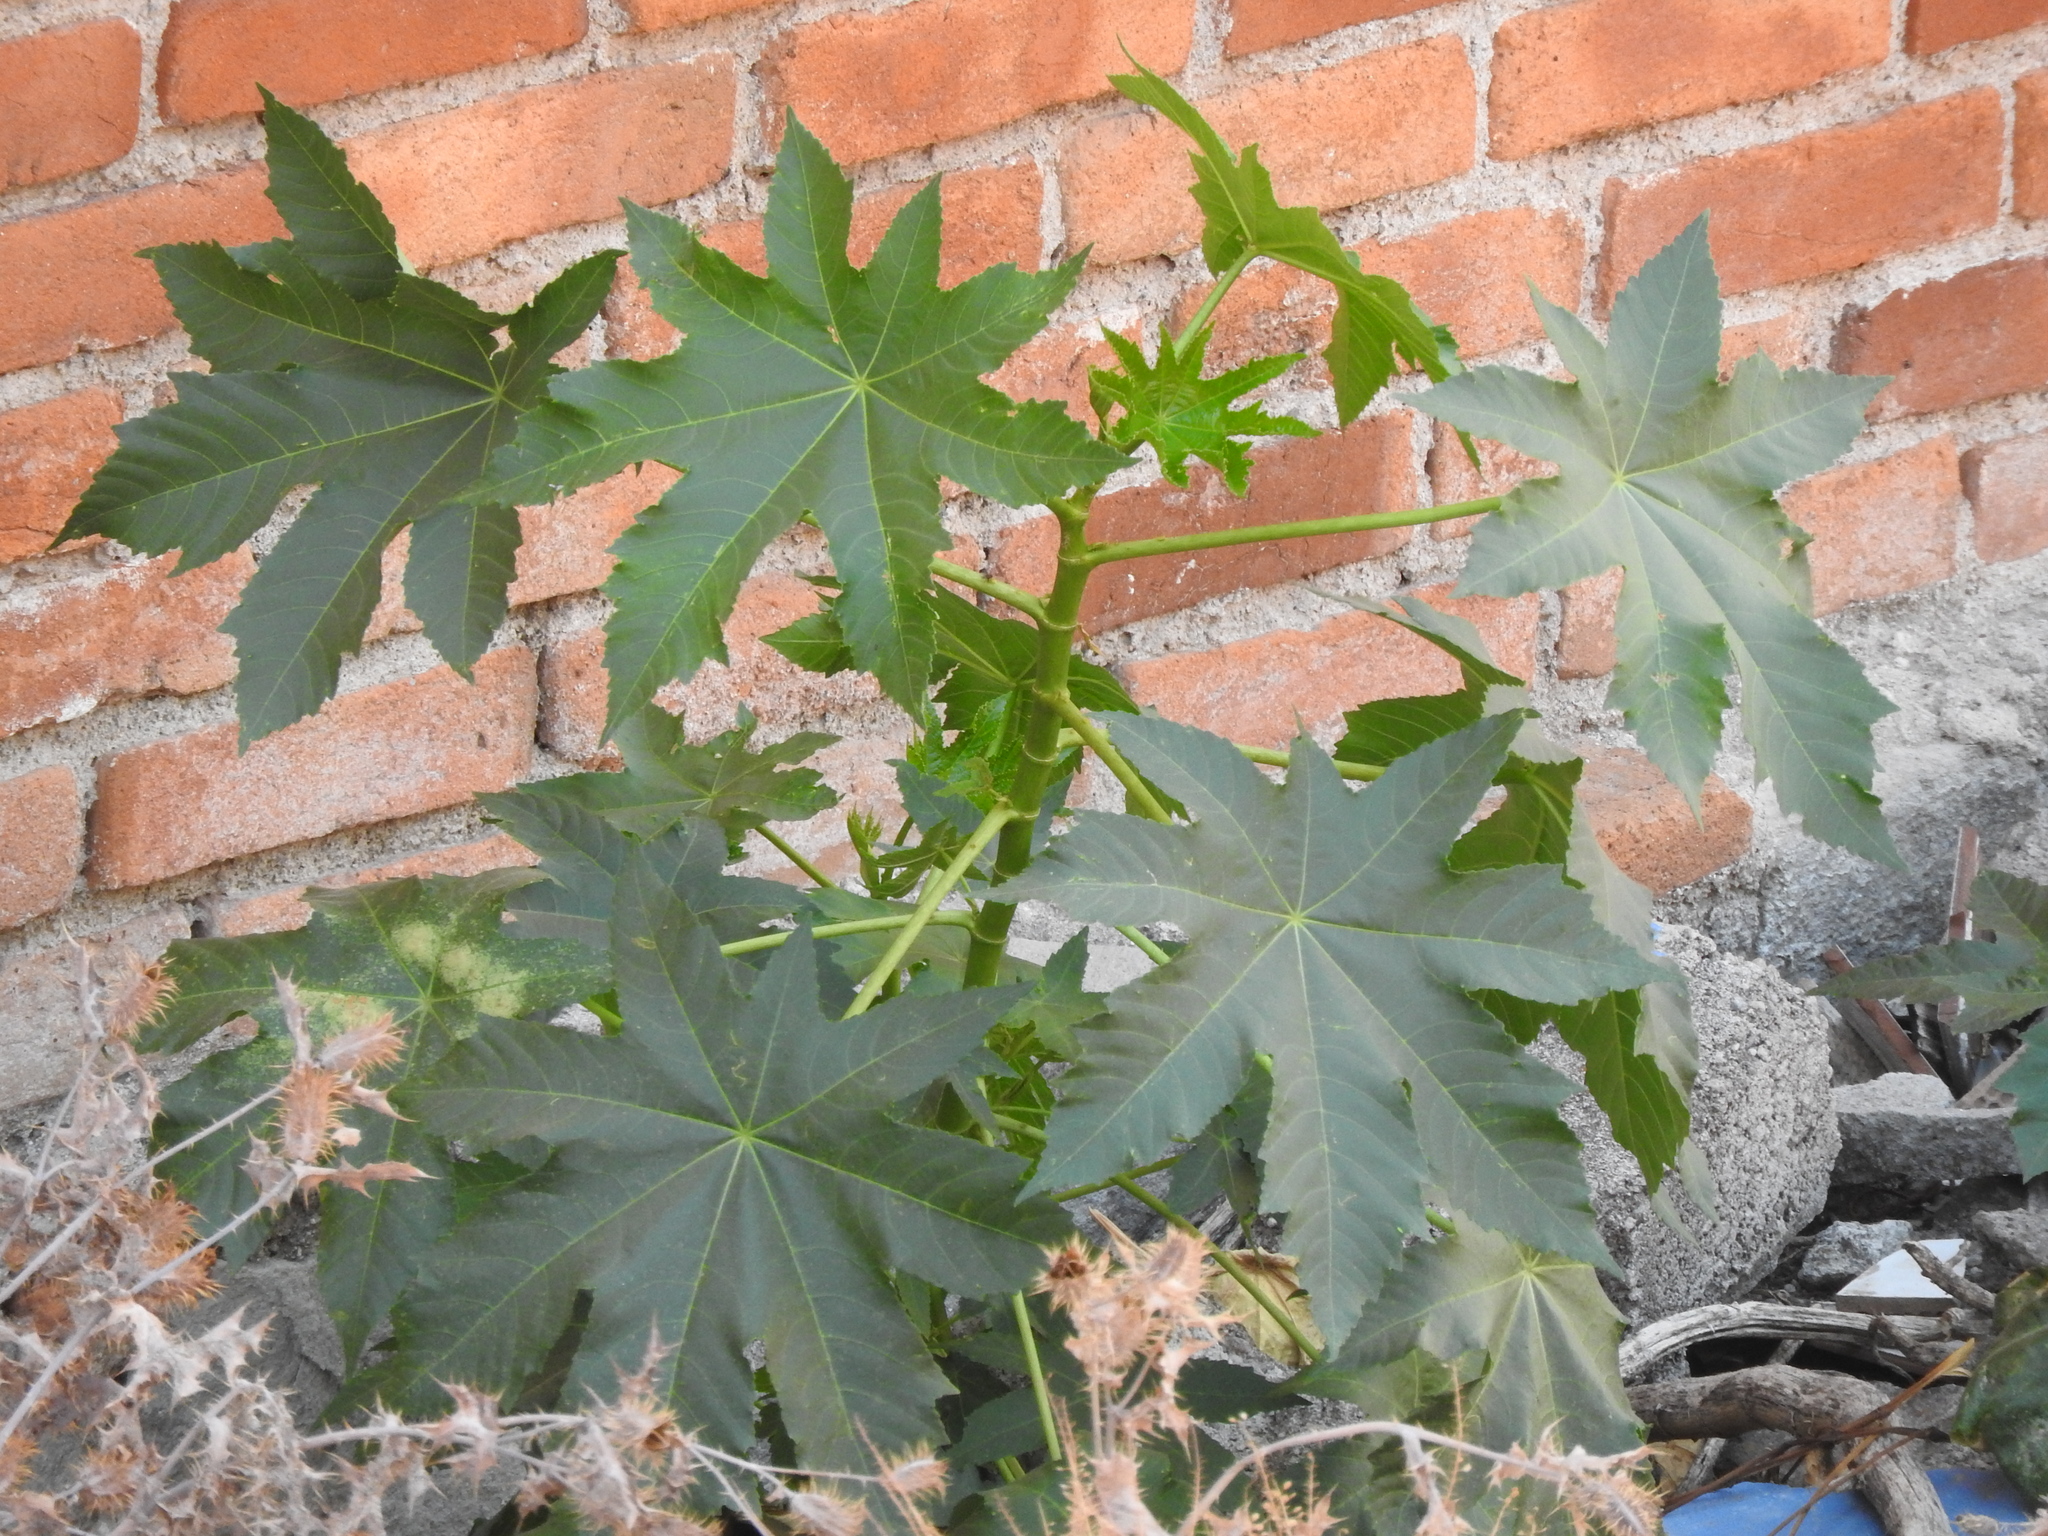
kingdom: Plantae
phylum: Tracheophyta
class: Magnoliopsida
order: Malpighiales
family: Euphorbiaceae
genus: Ricinus
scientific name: Ricinus communis
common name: Castor-oil-plant
